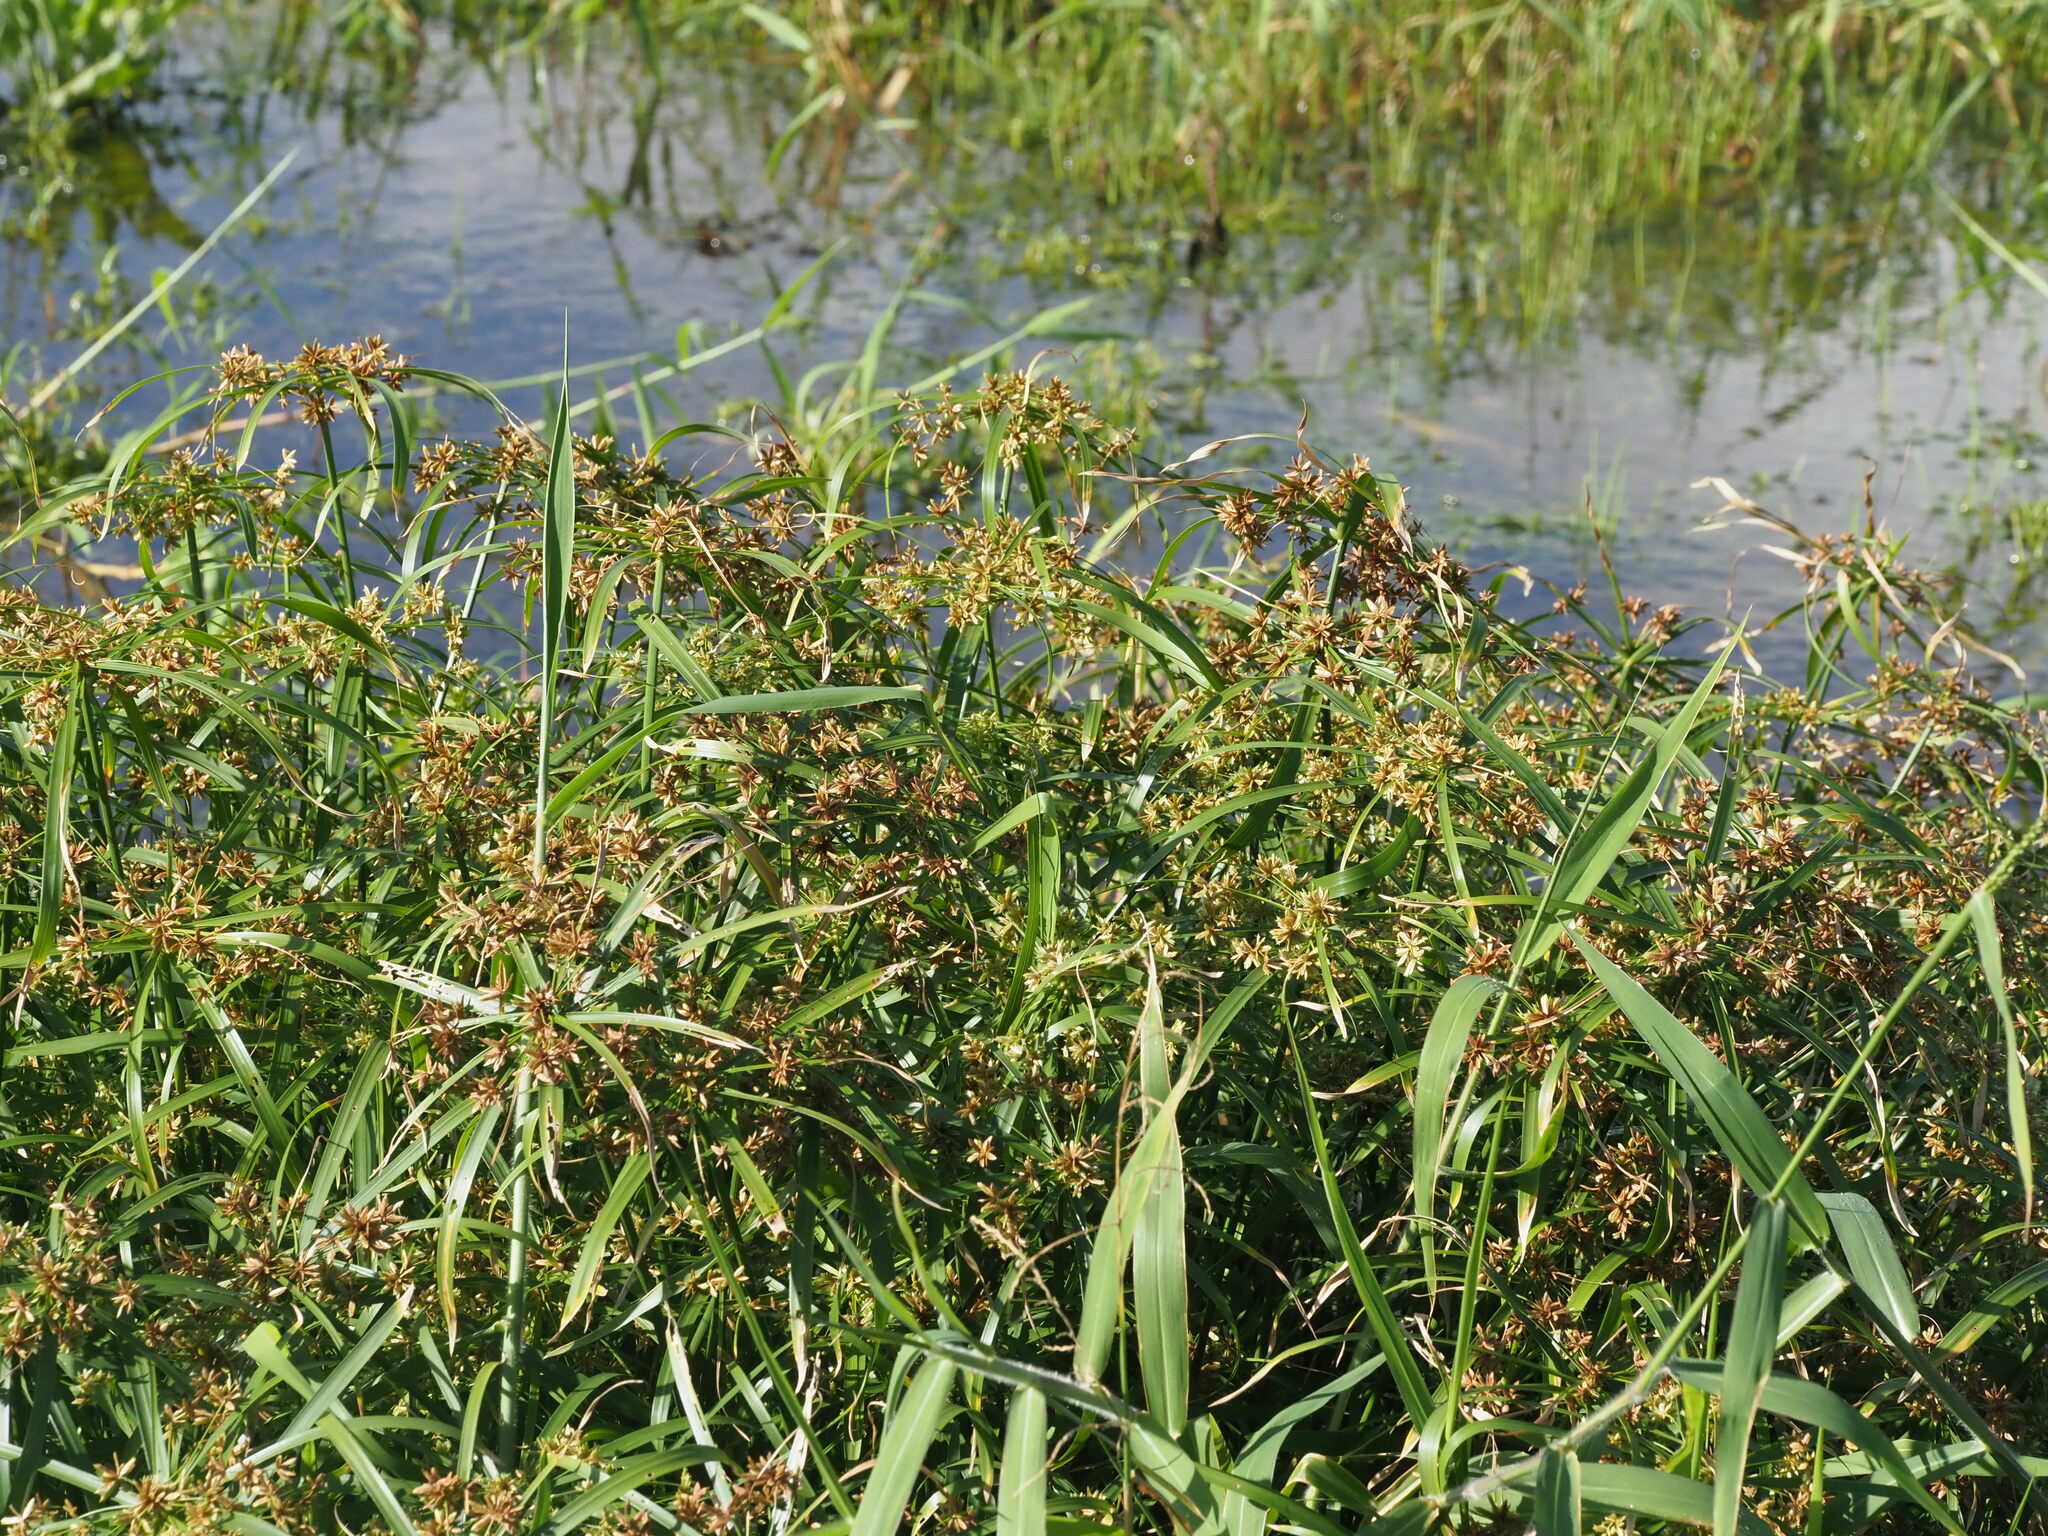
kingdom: Plantae
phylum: Tracheophyta
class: Liliopsida
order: Poales
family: Cyperaceae
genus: Cyperus
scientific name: Cyperus alternifolius
